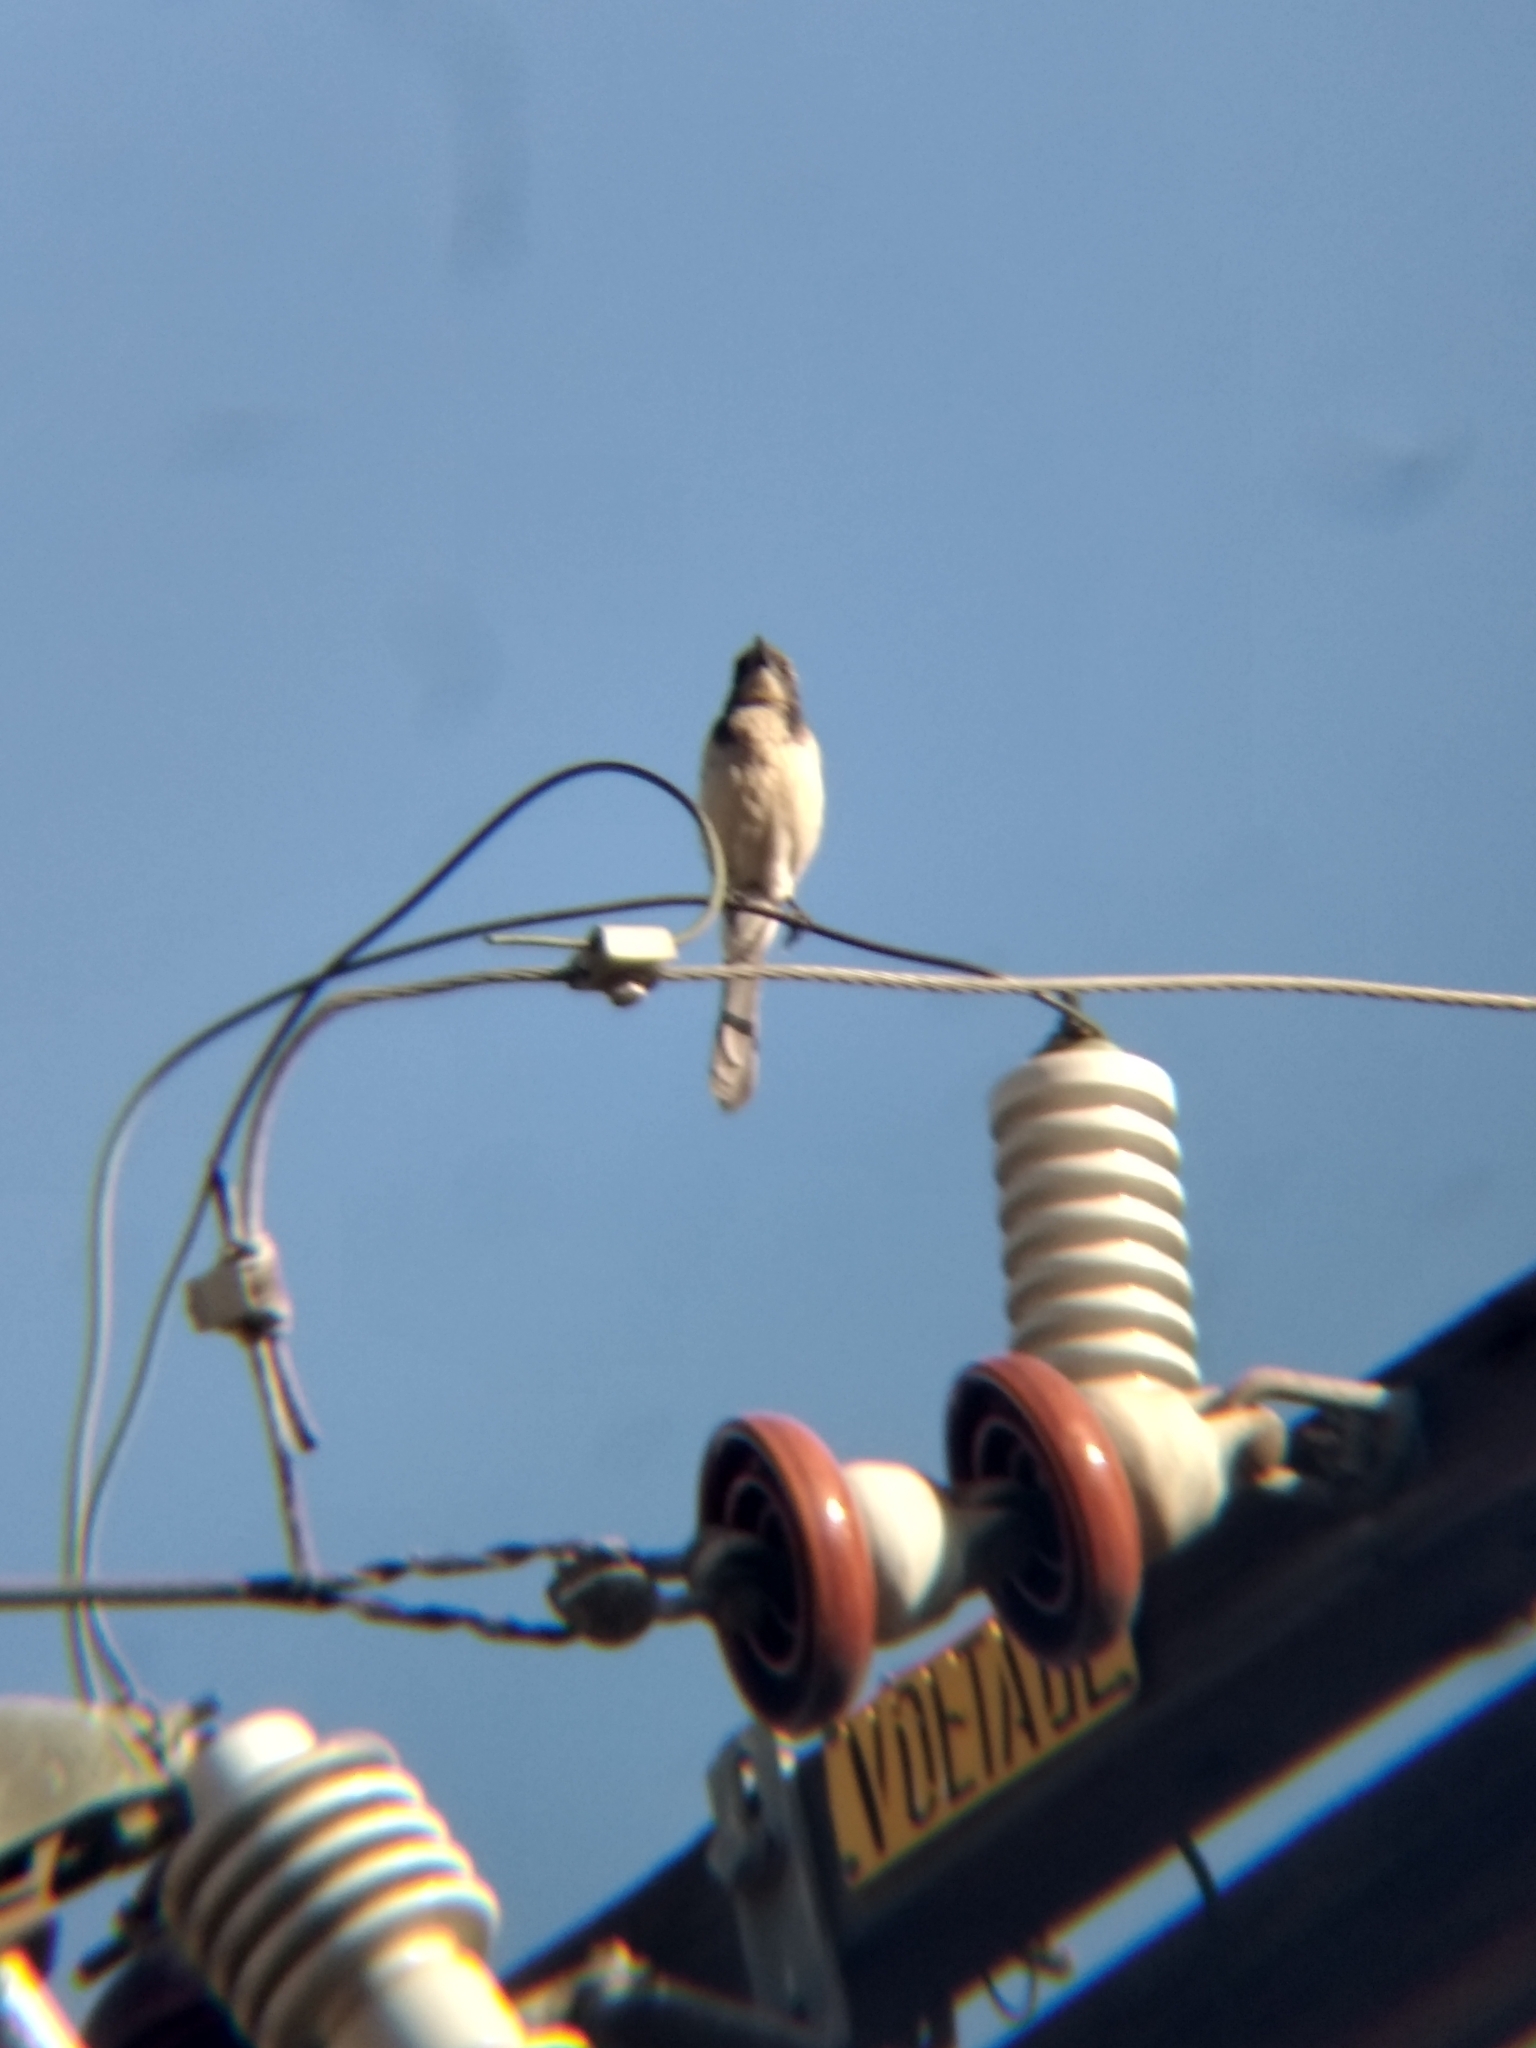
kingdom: Animalia
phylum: Chordata
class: Aves
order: Passeriformes
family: Corvidae
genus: Aphelocoma
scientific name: Aphelocoma californica
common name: California scrub-jay
